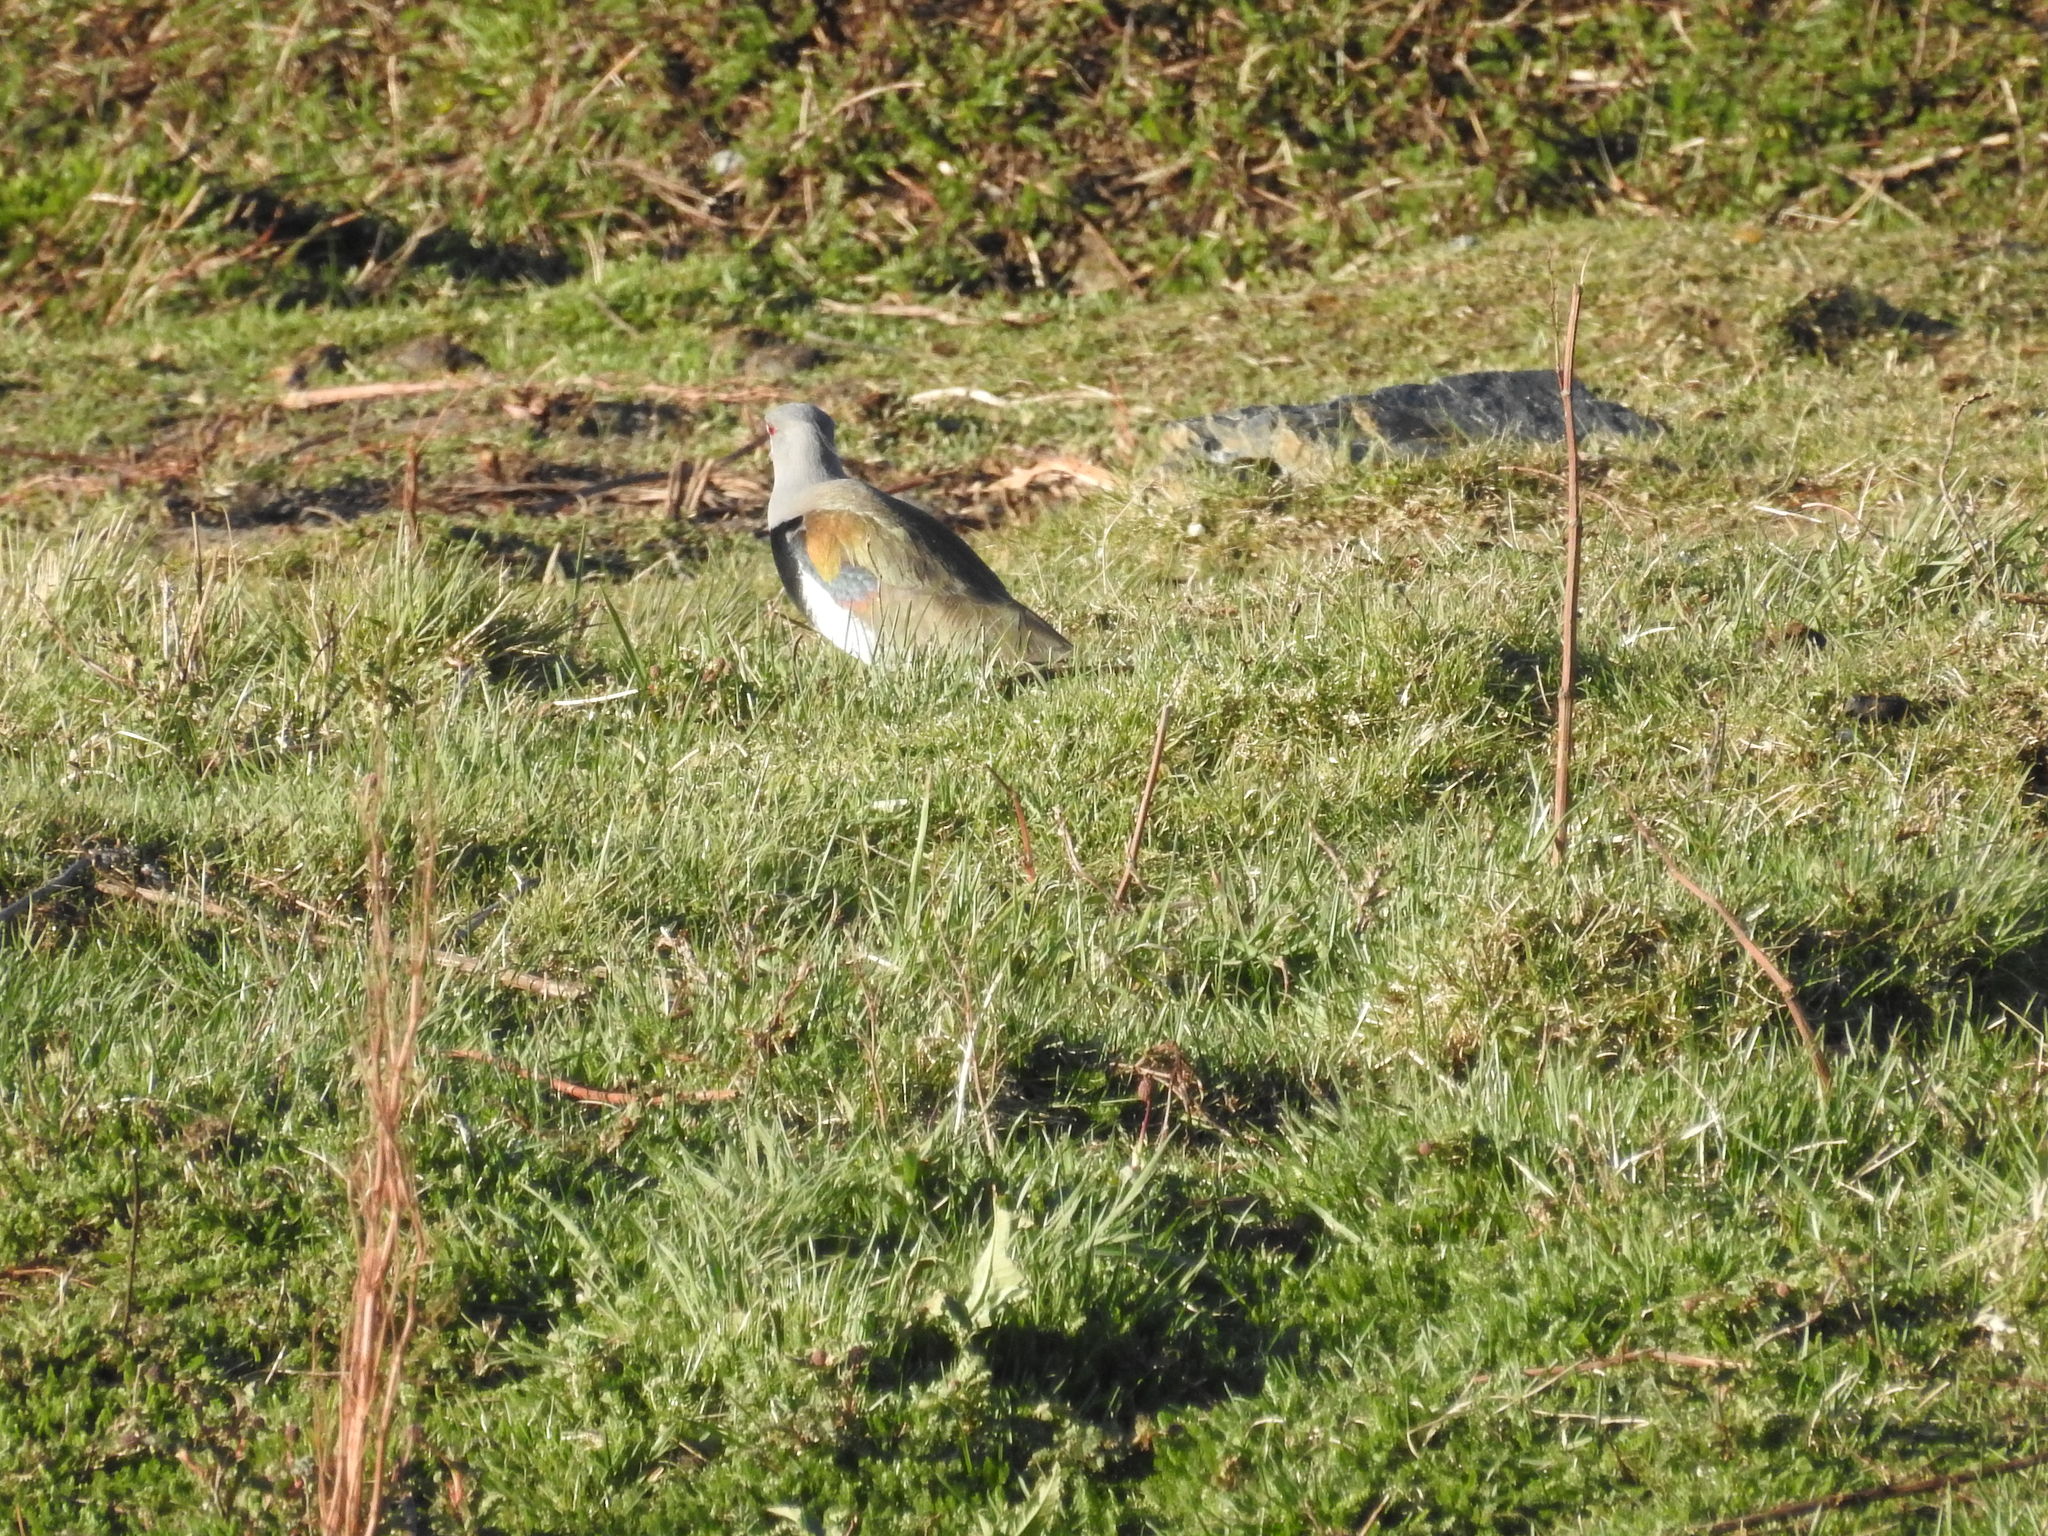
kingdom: Animalia
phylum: Chordata
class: Aves
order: Charadriiformes
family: Charadriidae
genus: Vanellus
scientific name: Vanellus chilensis
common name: Southern lapwing
